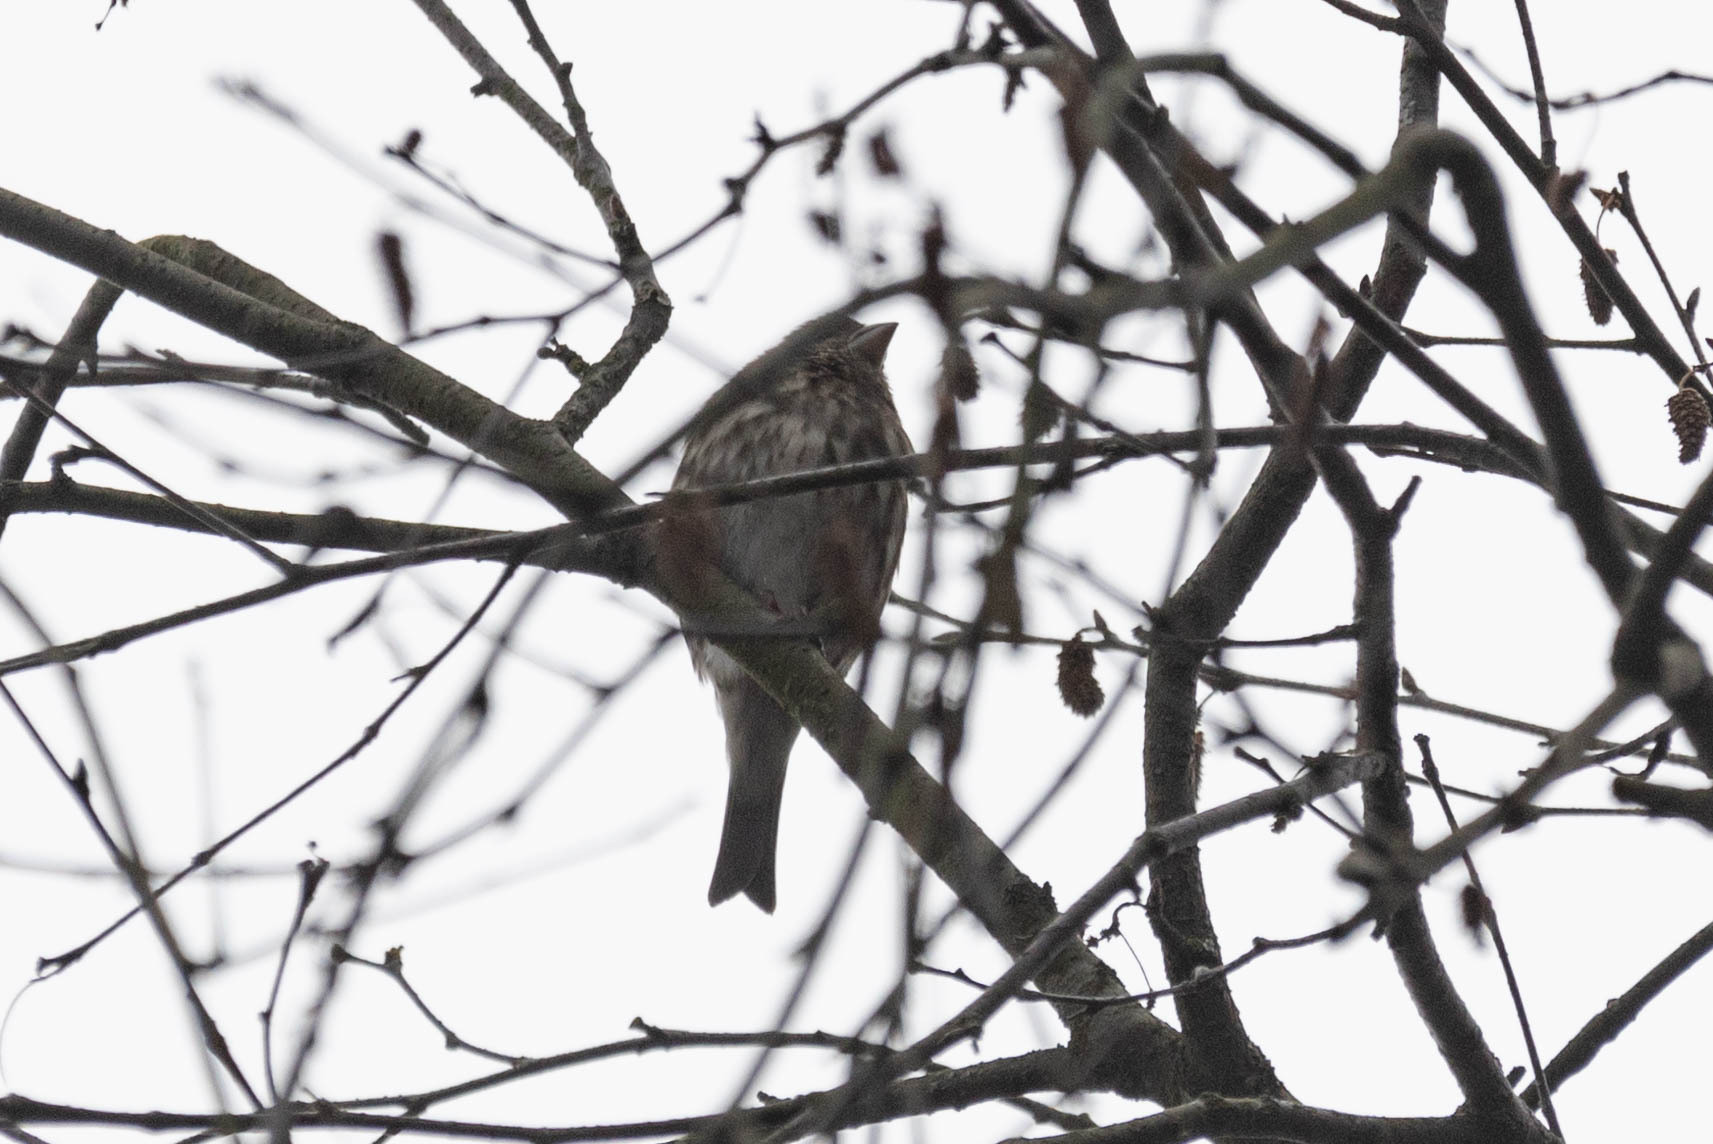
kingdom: Animalia
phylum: Chordata
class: Aves
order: Passeriformes
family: Fringillidae
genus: Haemorhous
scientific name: Haemorhous purpureus
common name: Purple finch
